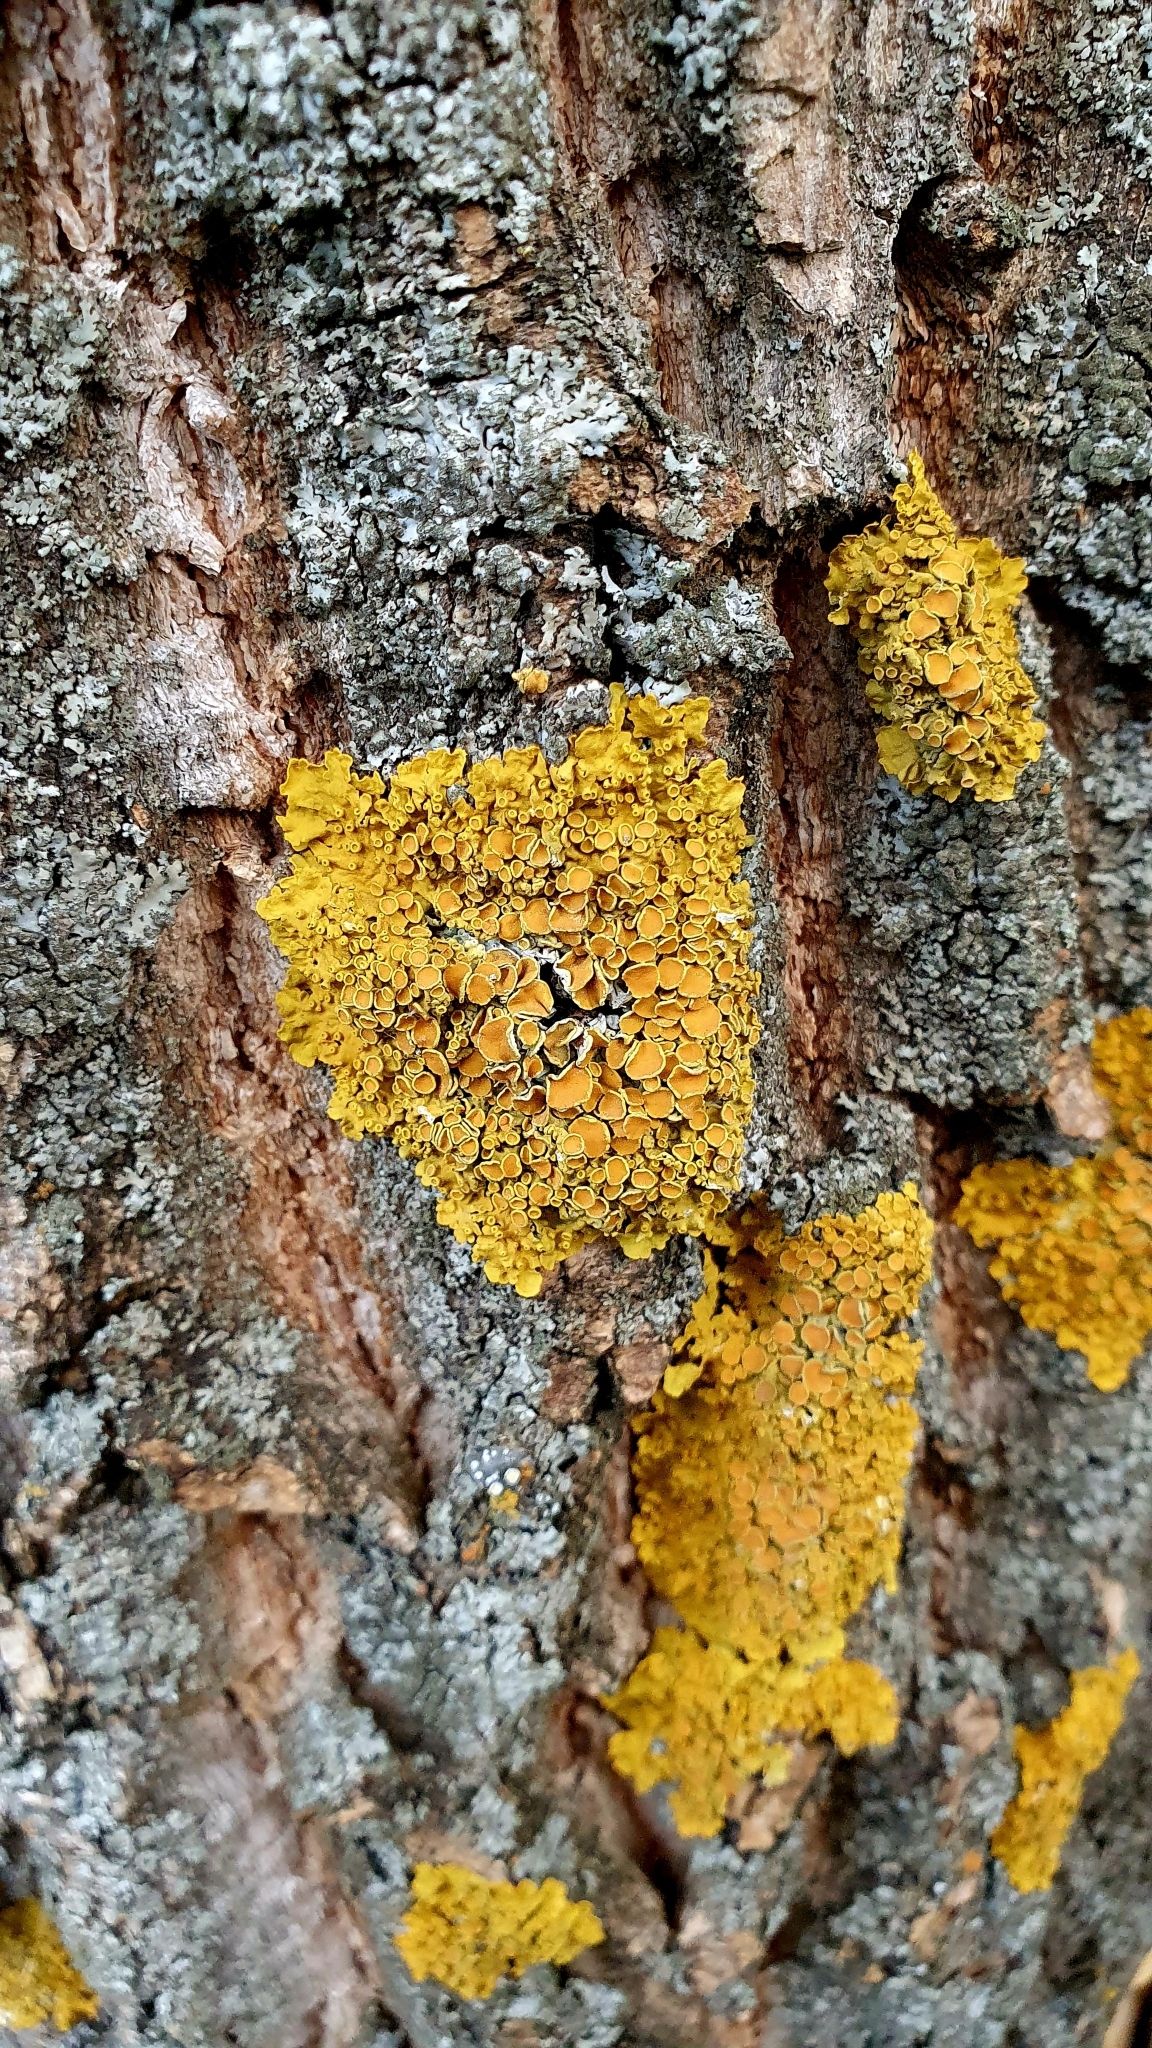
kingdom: Fungi
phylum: Ascomycota
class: Lecanoromycetes
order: Teloschistales
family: Teloschistaceae
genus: Xanthoria
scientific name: Xanthoria parietina
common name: Common orange lichen
